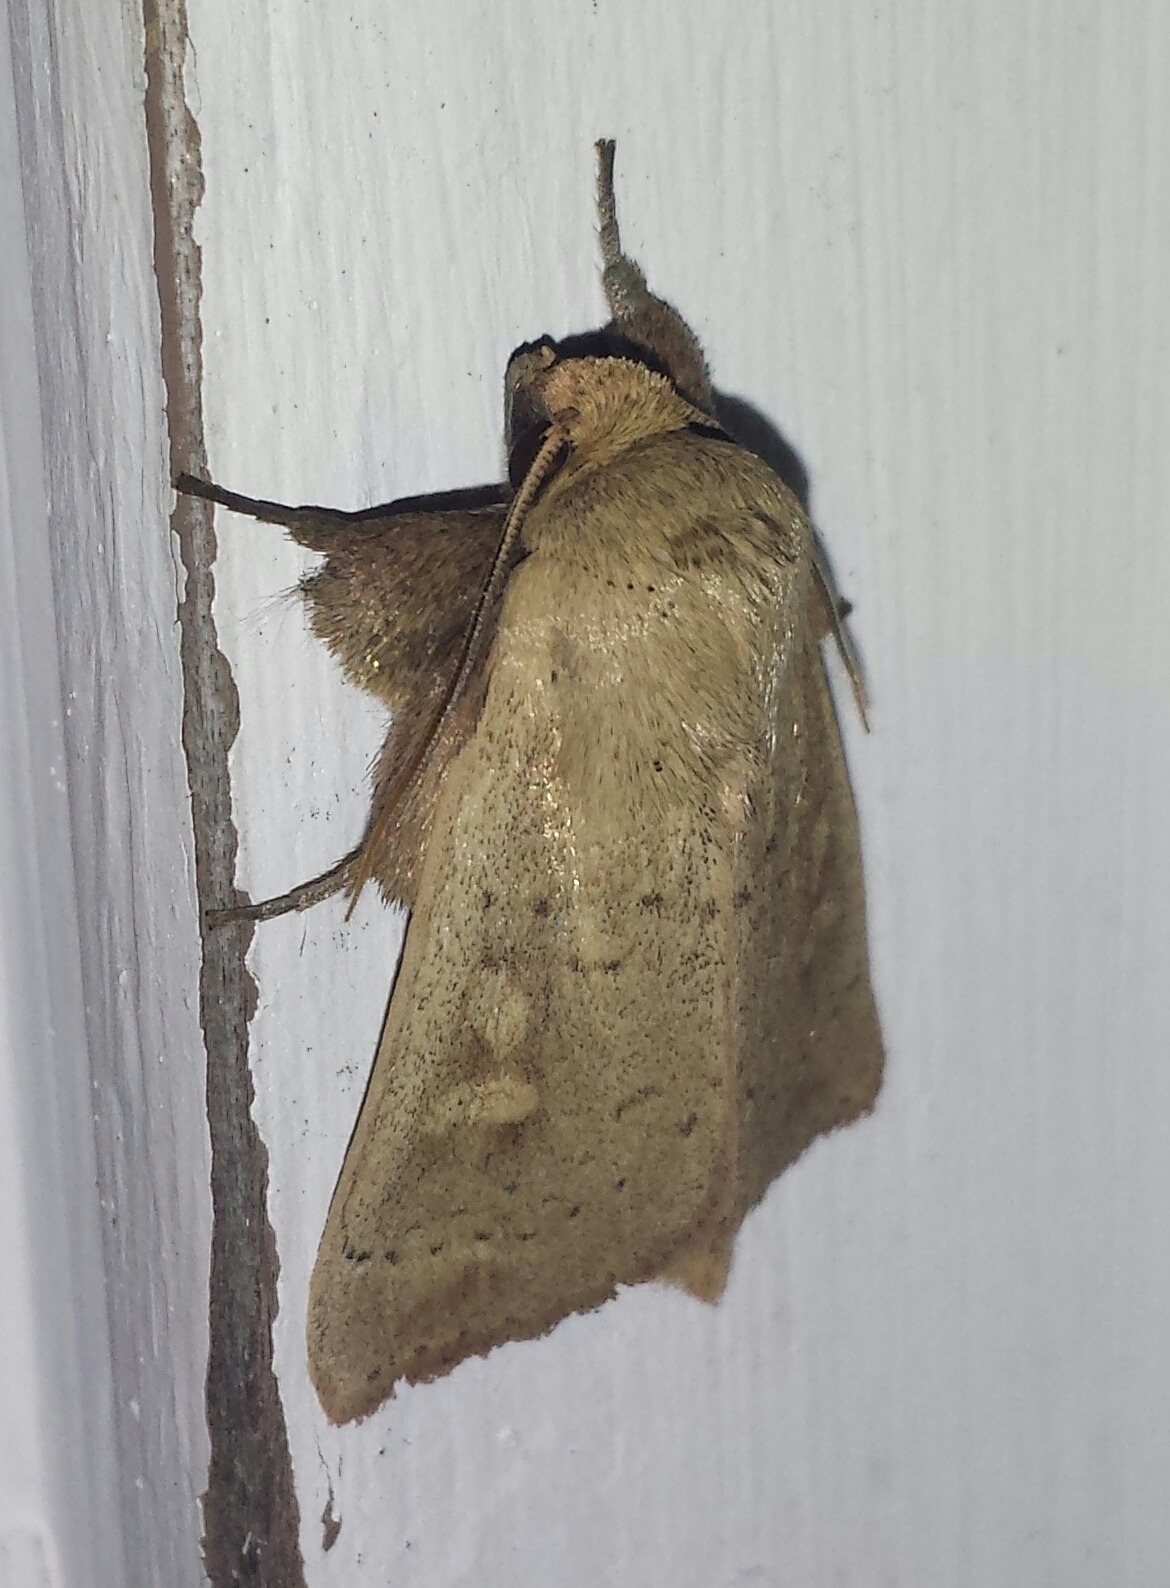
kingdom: Animalia
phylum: Arthropoda
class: Insecta
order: Lepidoptera
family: Noctuidae
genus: Leucania
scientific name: Leucania ursula
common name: Ursula wainscot
